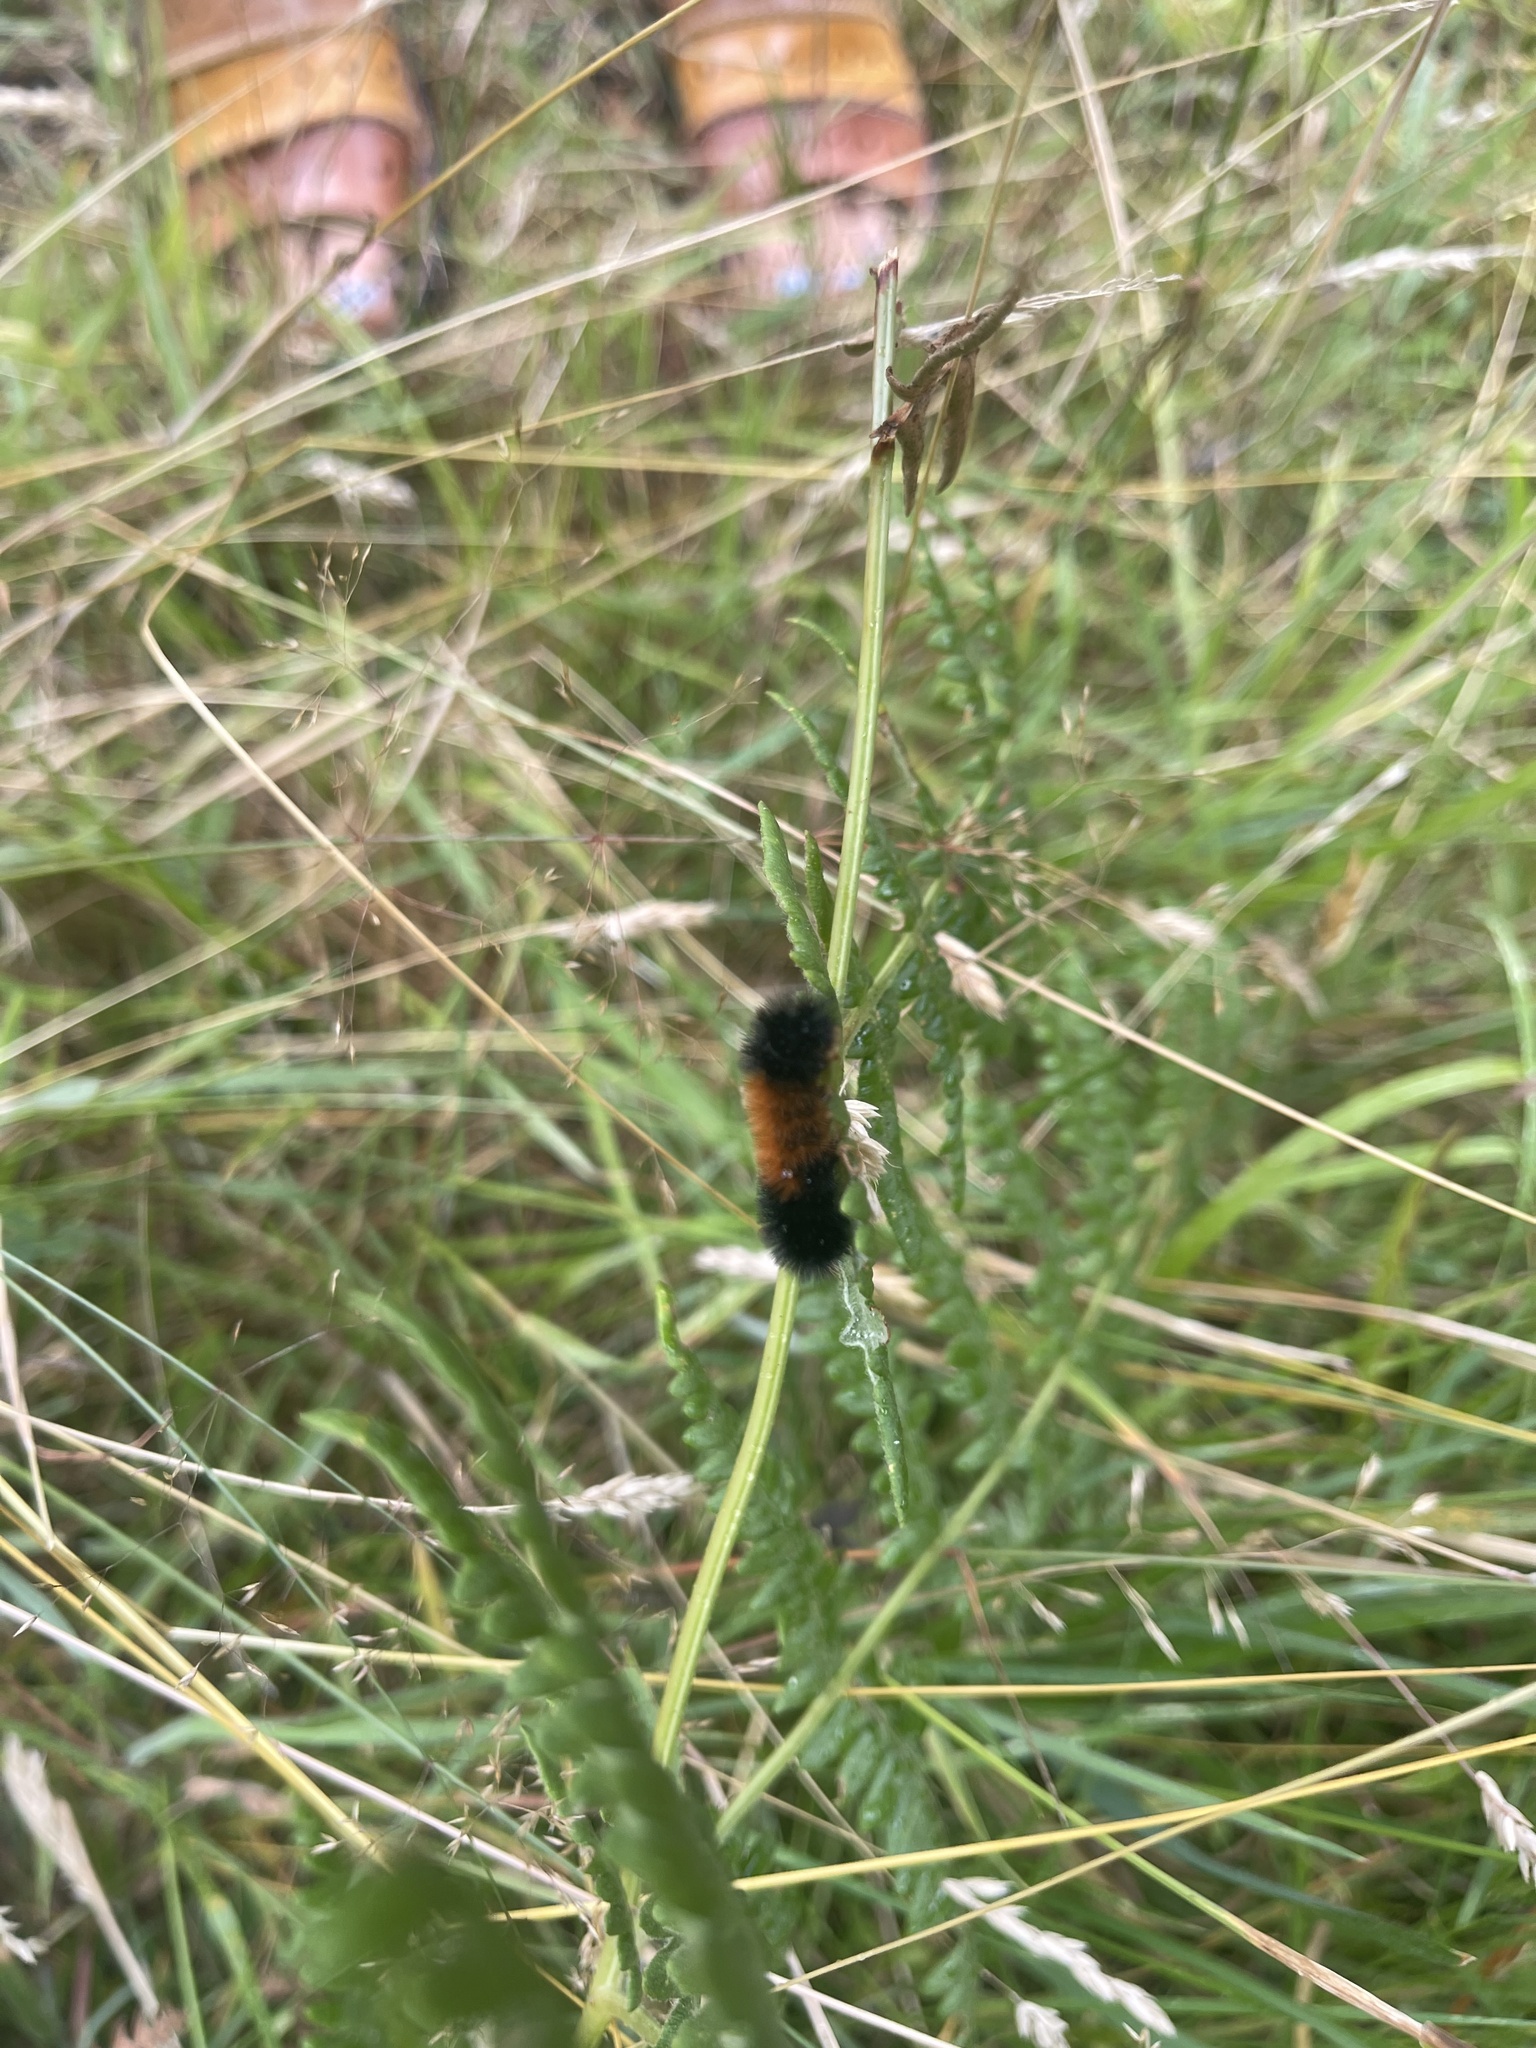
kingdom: Animalia
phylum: Arthropoda
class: Insecta
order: Lepidoptera
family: Erebidae
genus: Pyrrharctia
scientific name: Pyrrharctia isabella
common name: Isabella tiger moth
